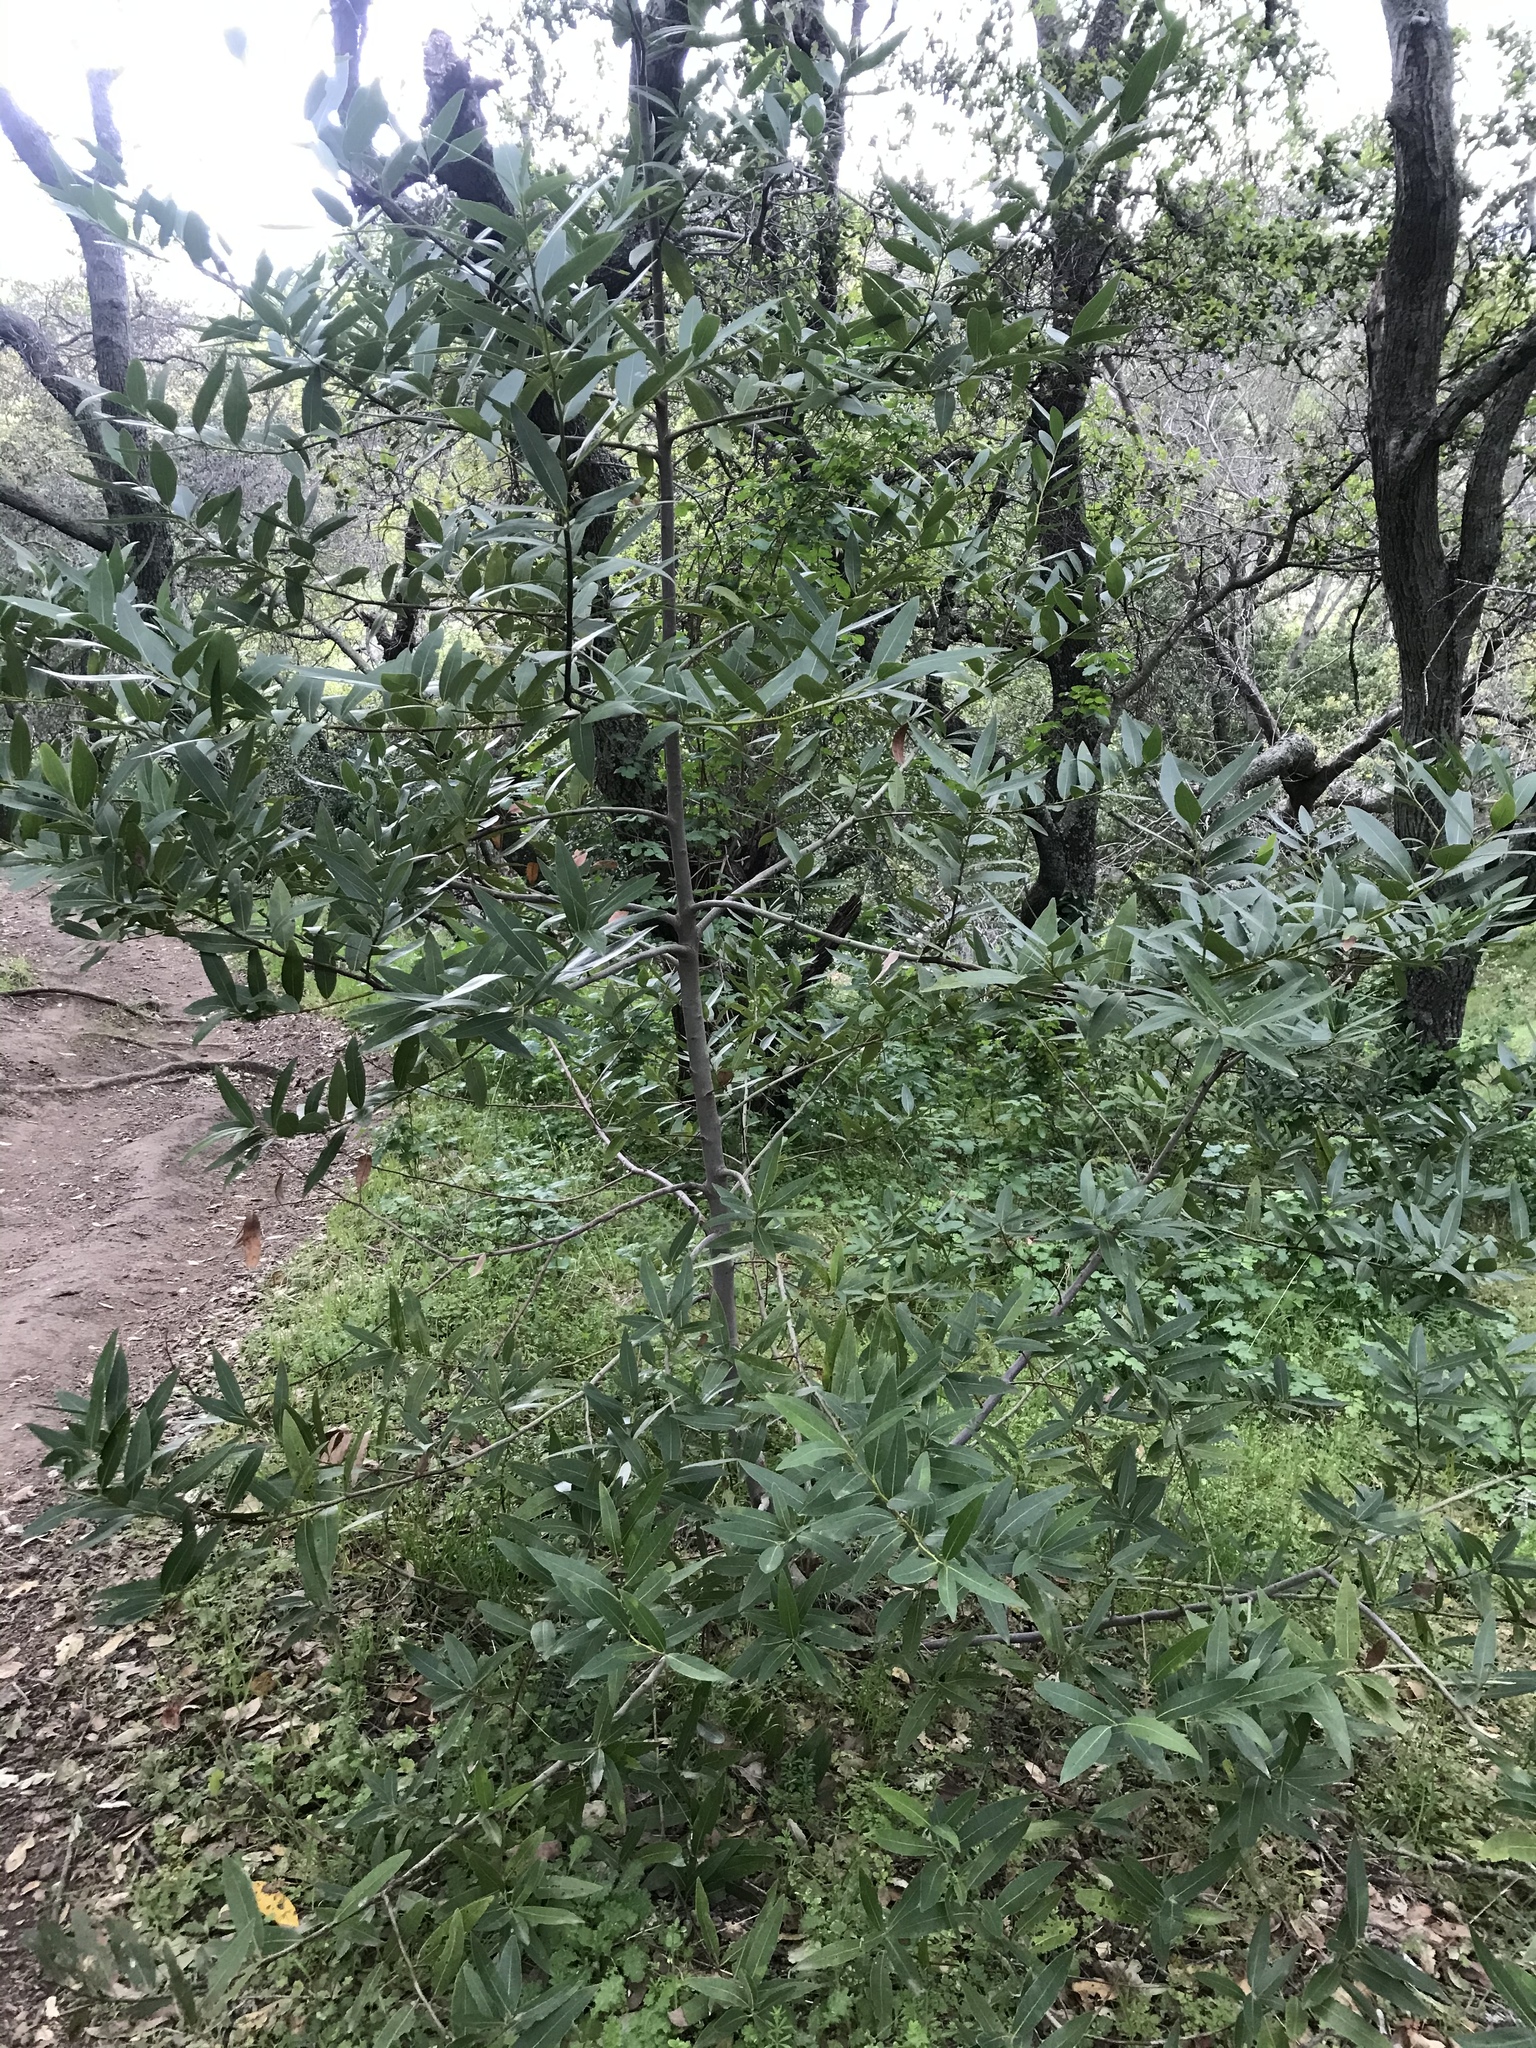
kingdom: Plantae
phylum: Tracheophyta
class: Magnoliopsida
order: Laurales
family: Lauraceae
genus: Umbellularia
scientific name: Umbellularia californica
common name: California bay
